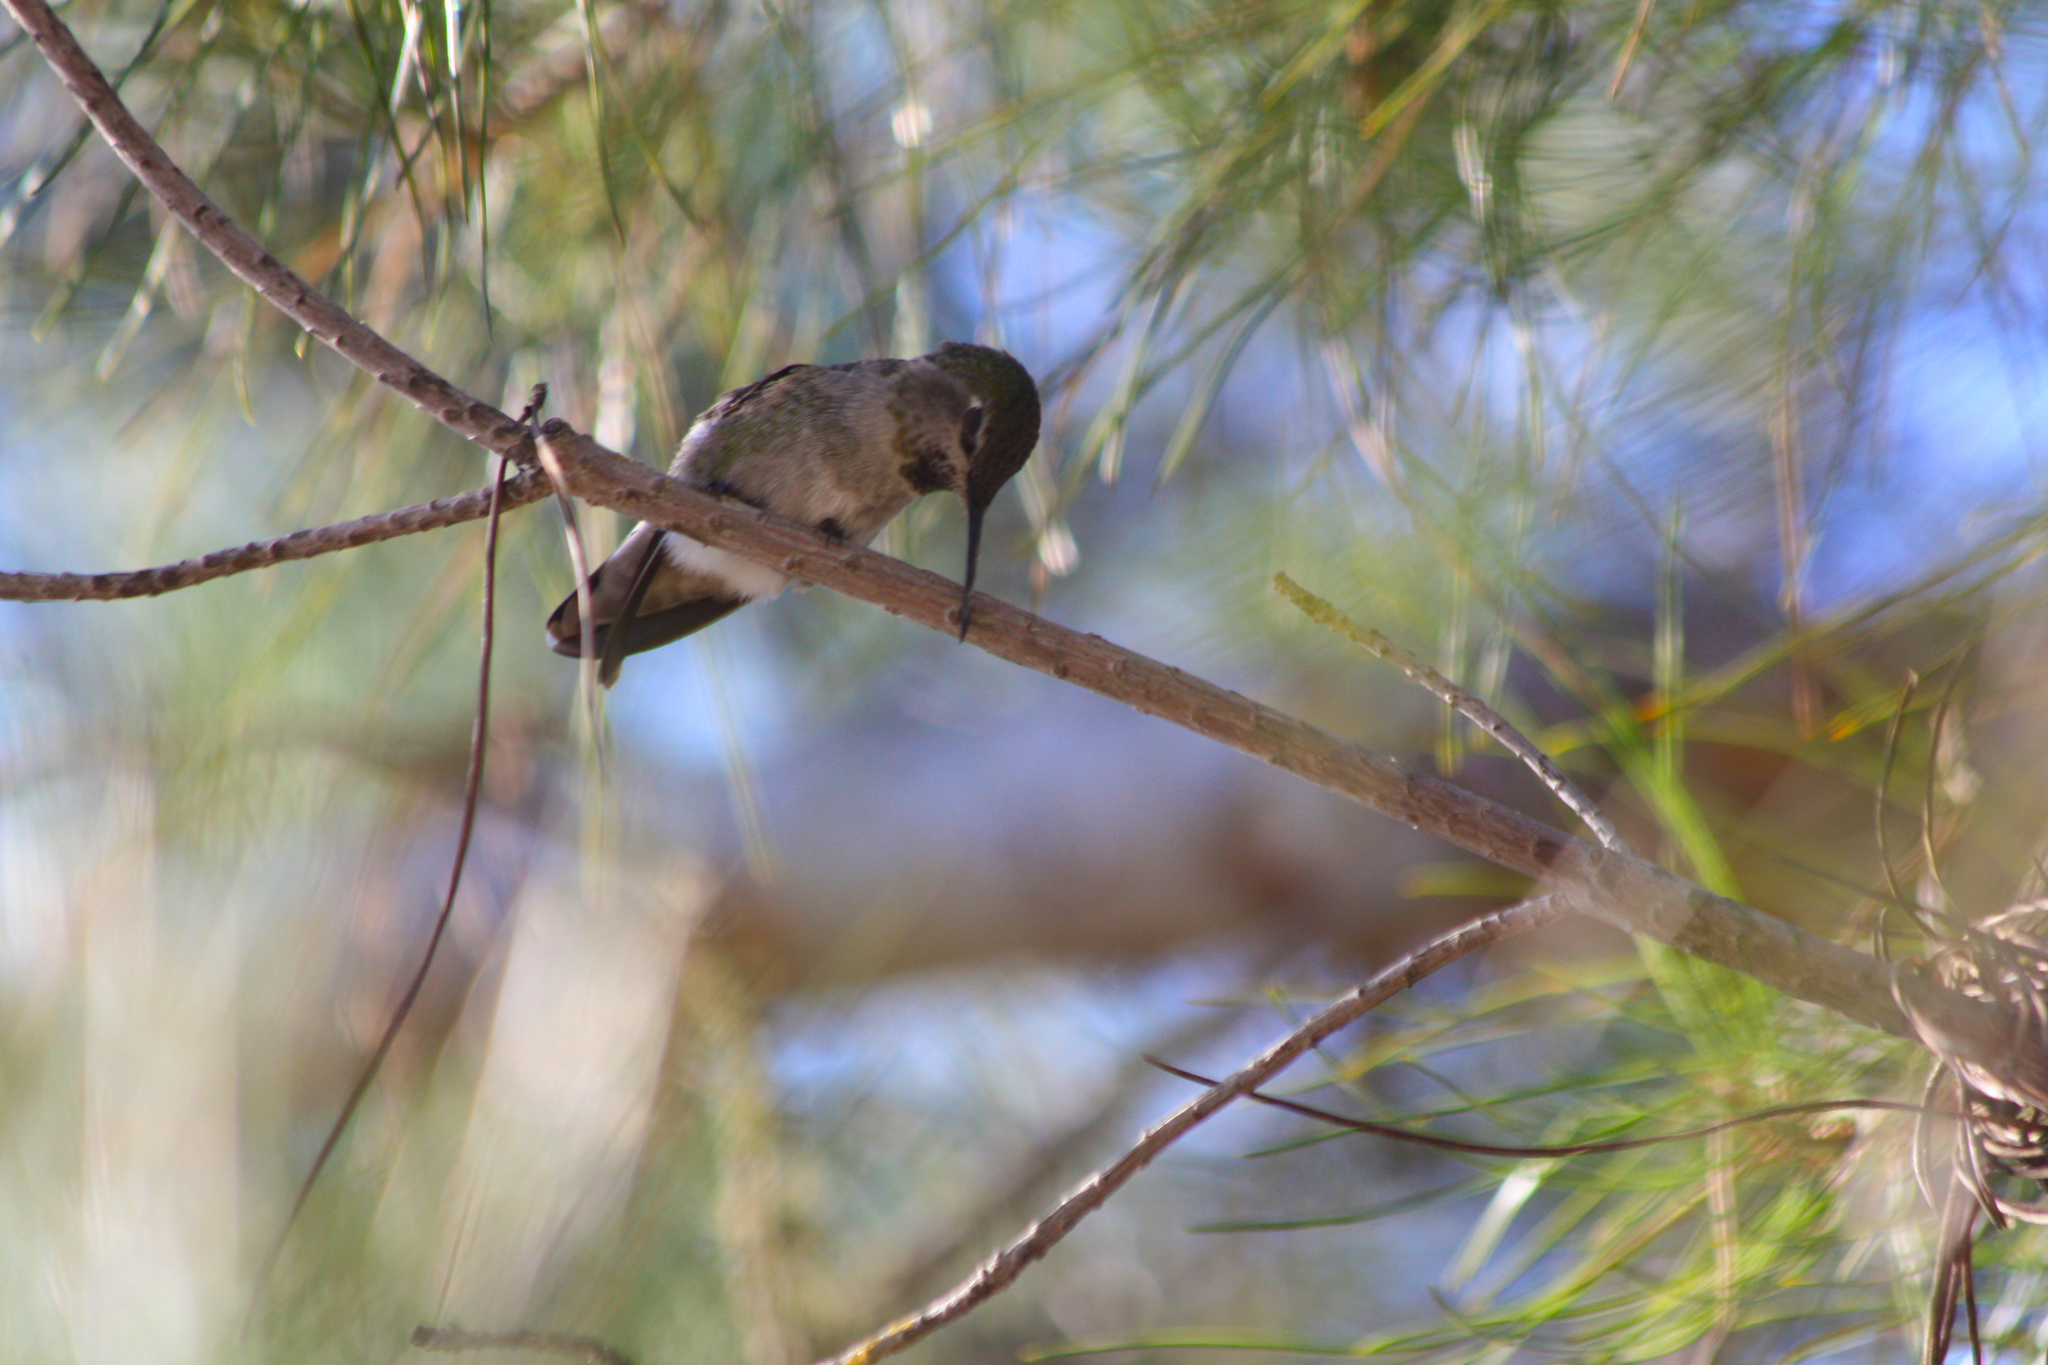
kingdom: Animalia
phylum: Chordata
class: Aves
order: Apodiformes
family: Trochilidae
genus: Calypte
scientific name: Calypte anna
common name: Anna's hummingbird
